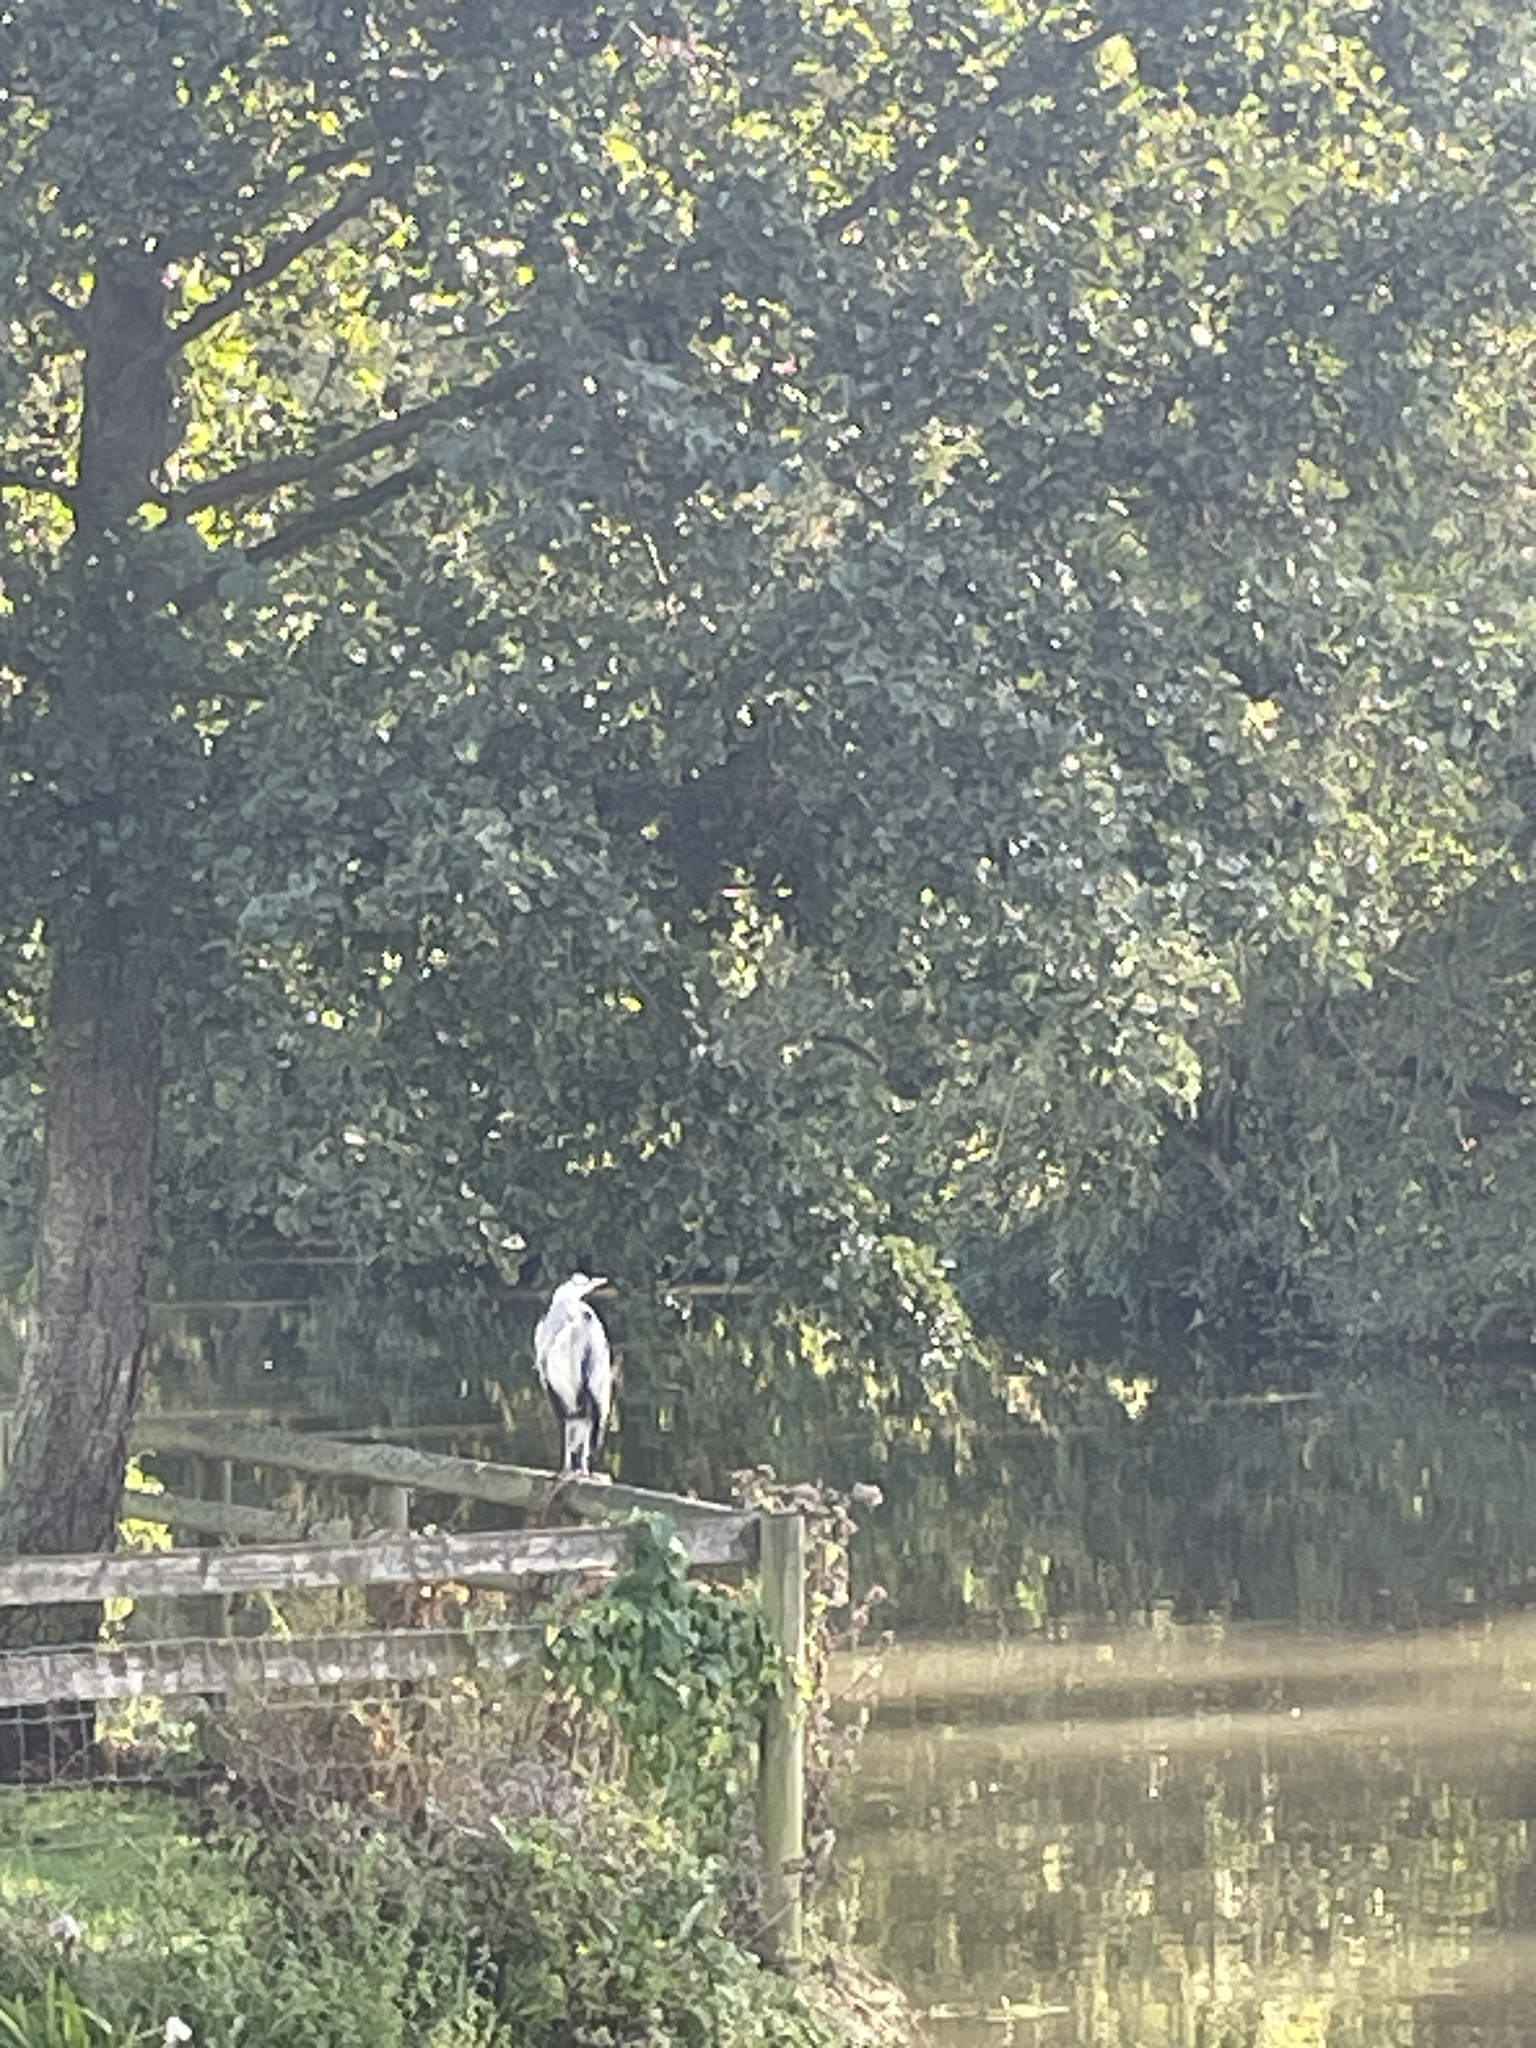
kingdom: Animalia
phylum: Chordata
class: Aves
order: Pelecaniformes
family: Ardeidae
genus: Ardea
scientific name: Ardea cinerea
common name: Grey heron
